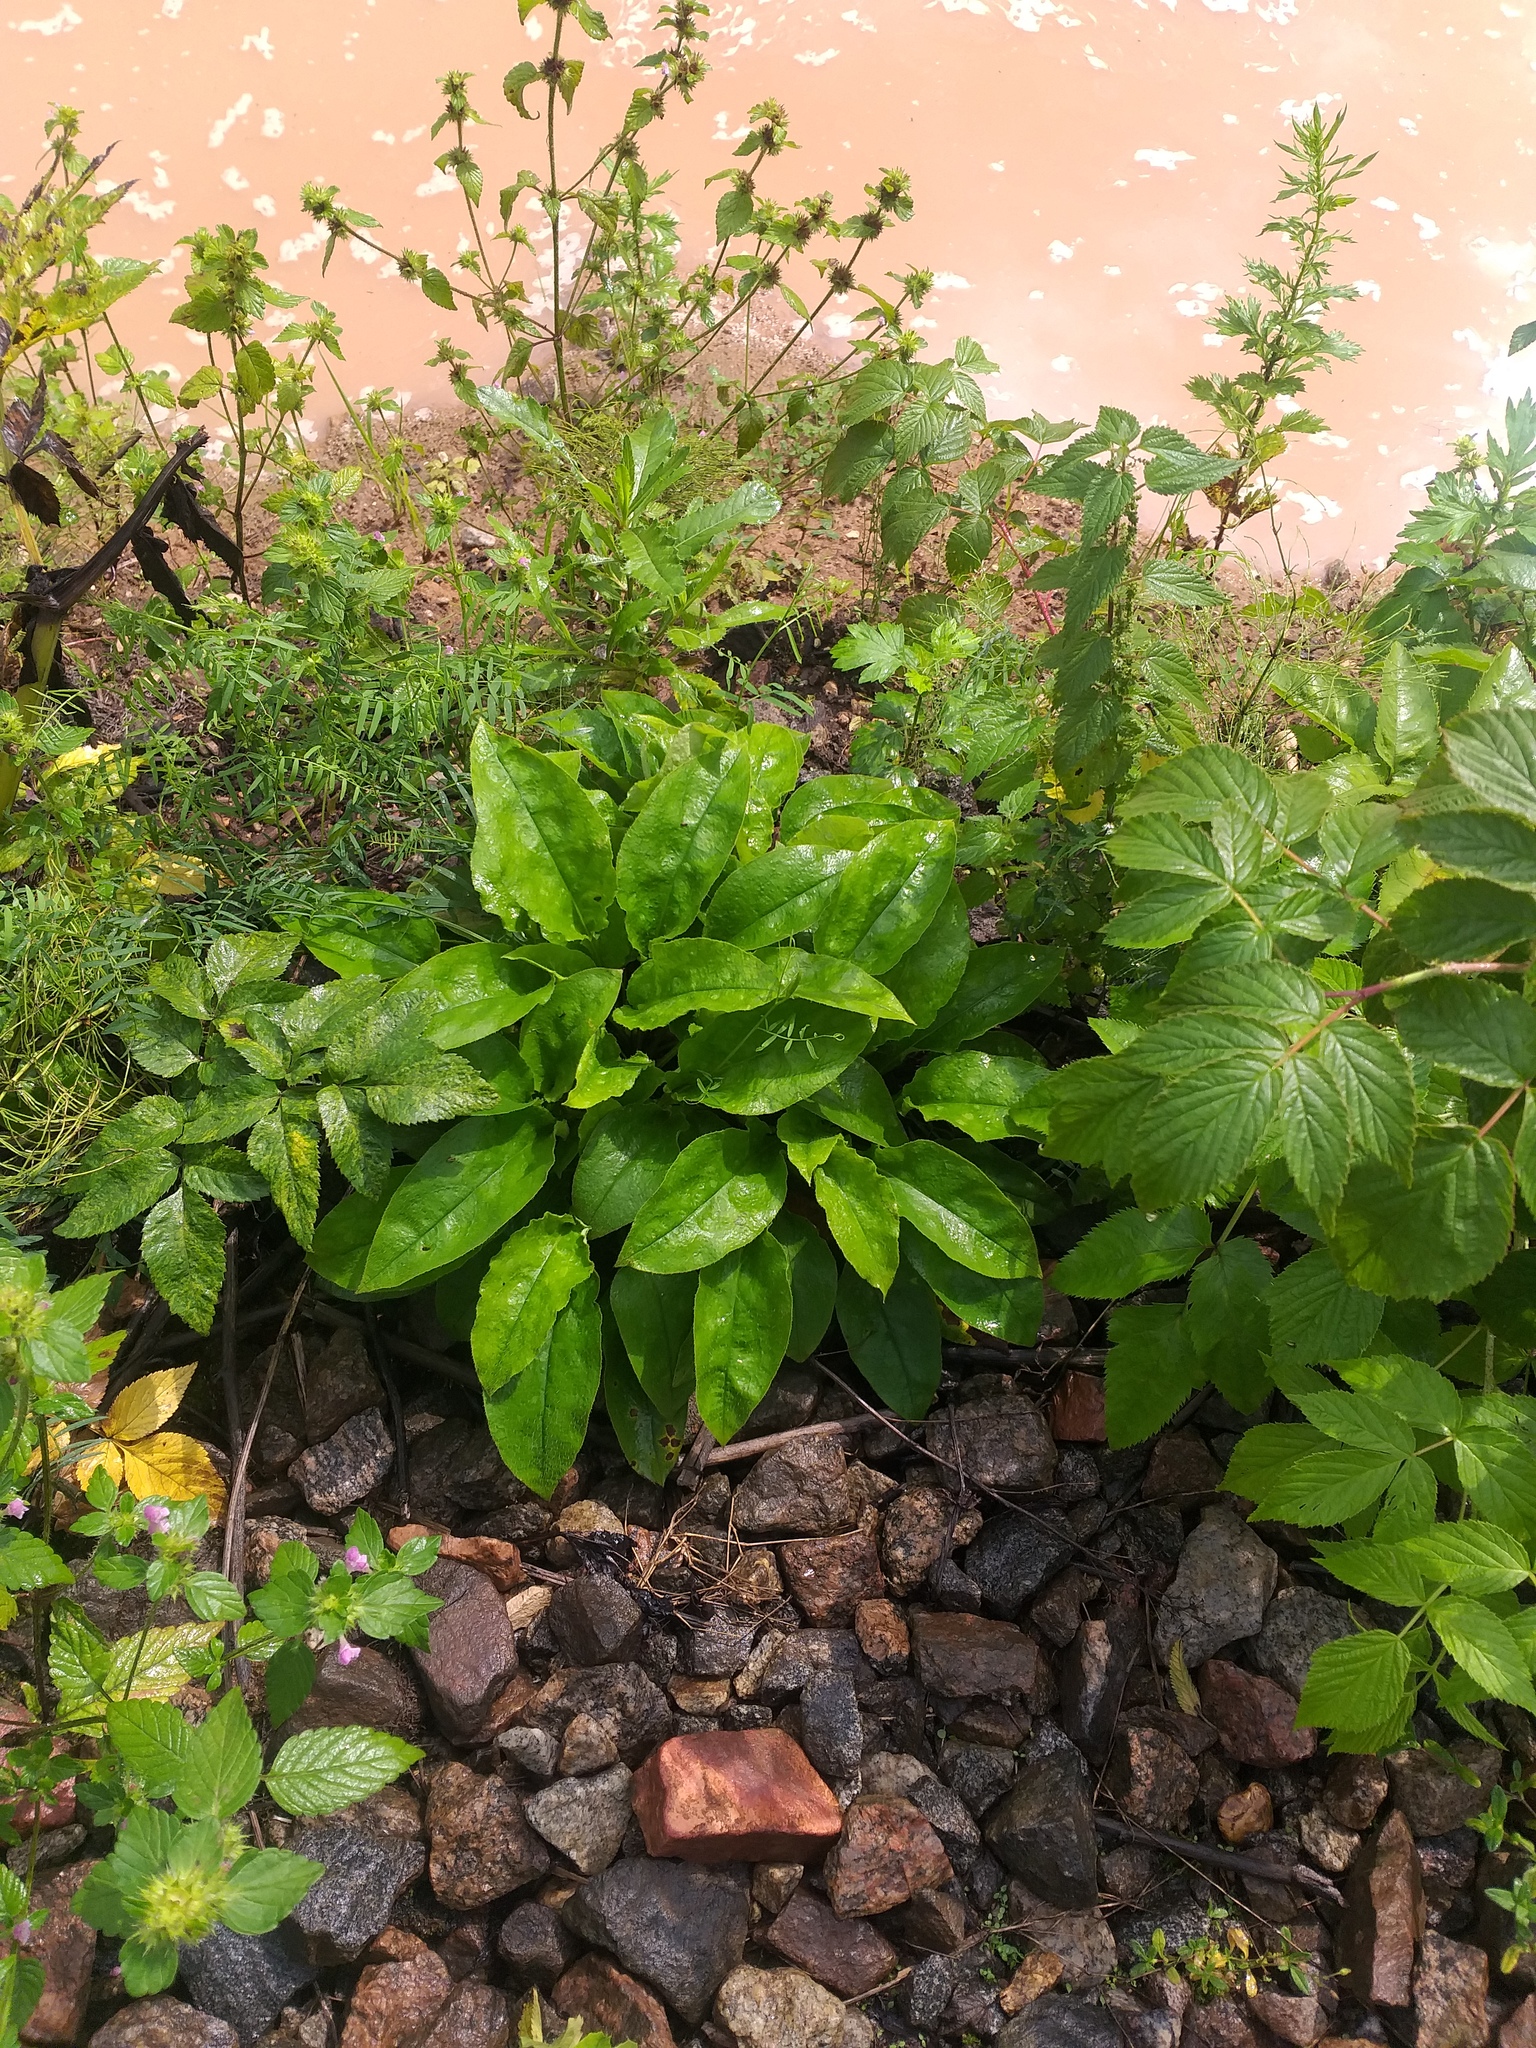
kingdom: Plantae
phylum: Tracheophyta
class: Magnoliopsida
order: Boraginales
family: Boraginaceae
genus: Pulmonaria
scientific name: Pulmonaria obscura
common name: Suffolk lungwort
